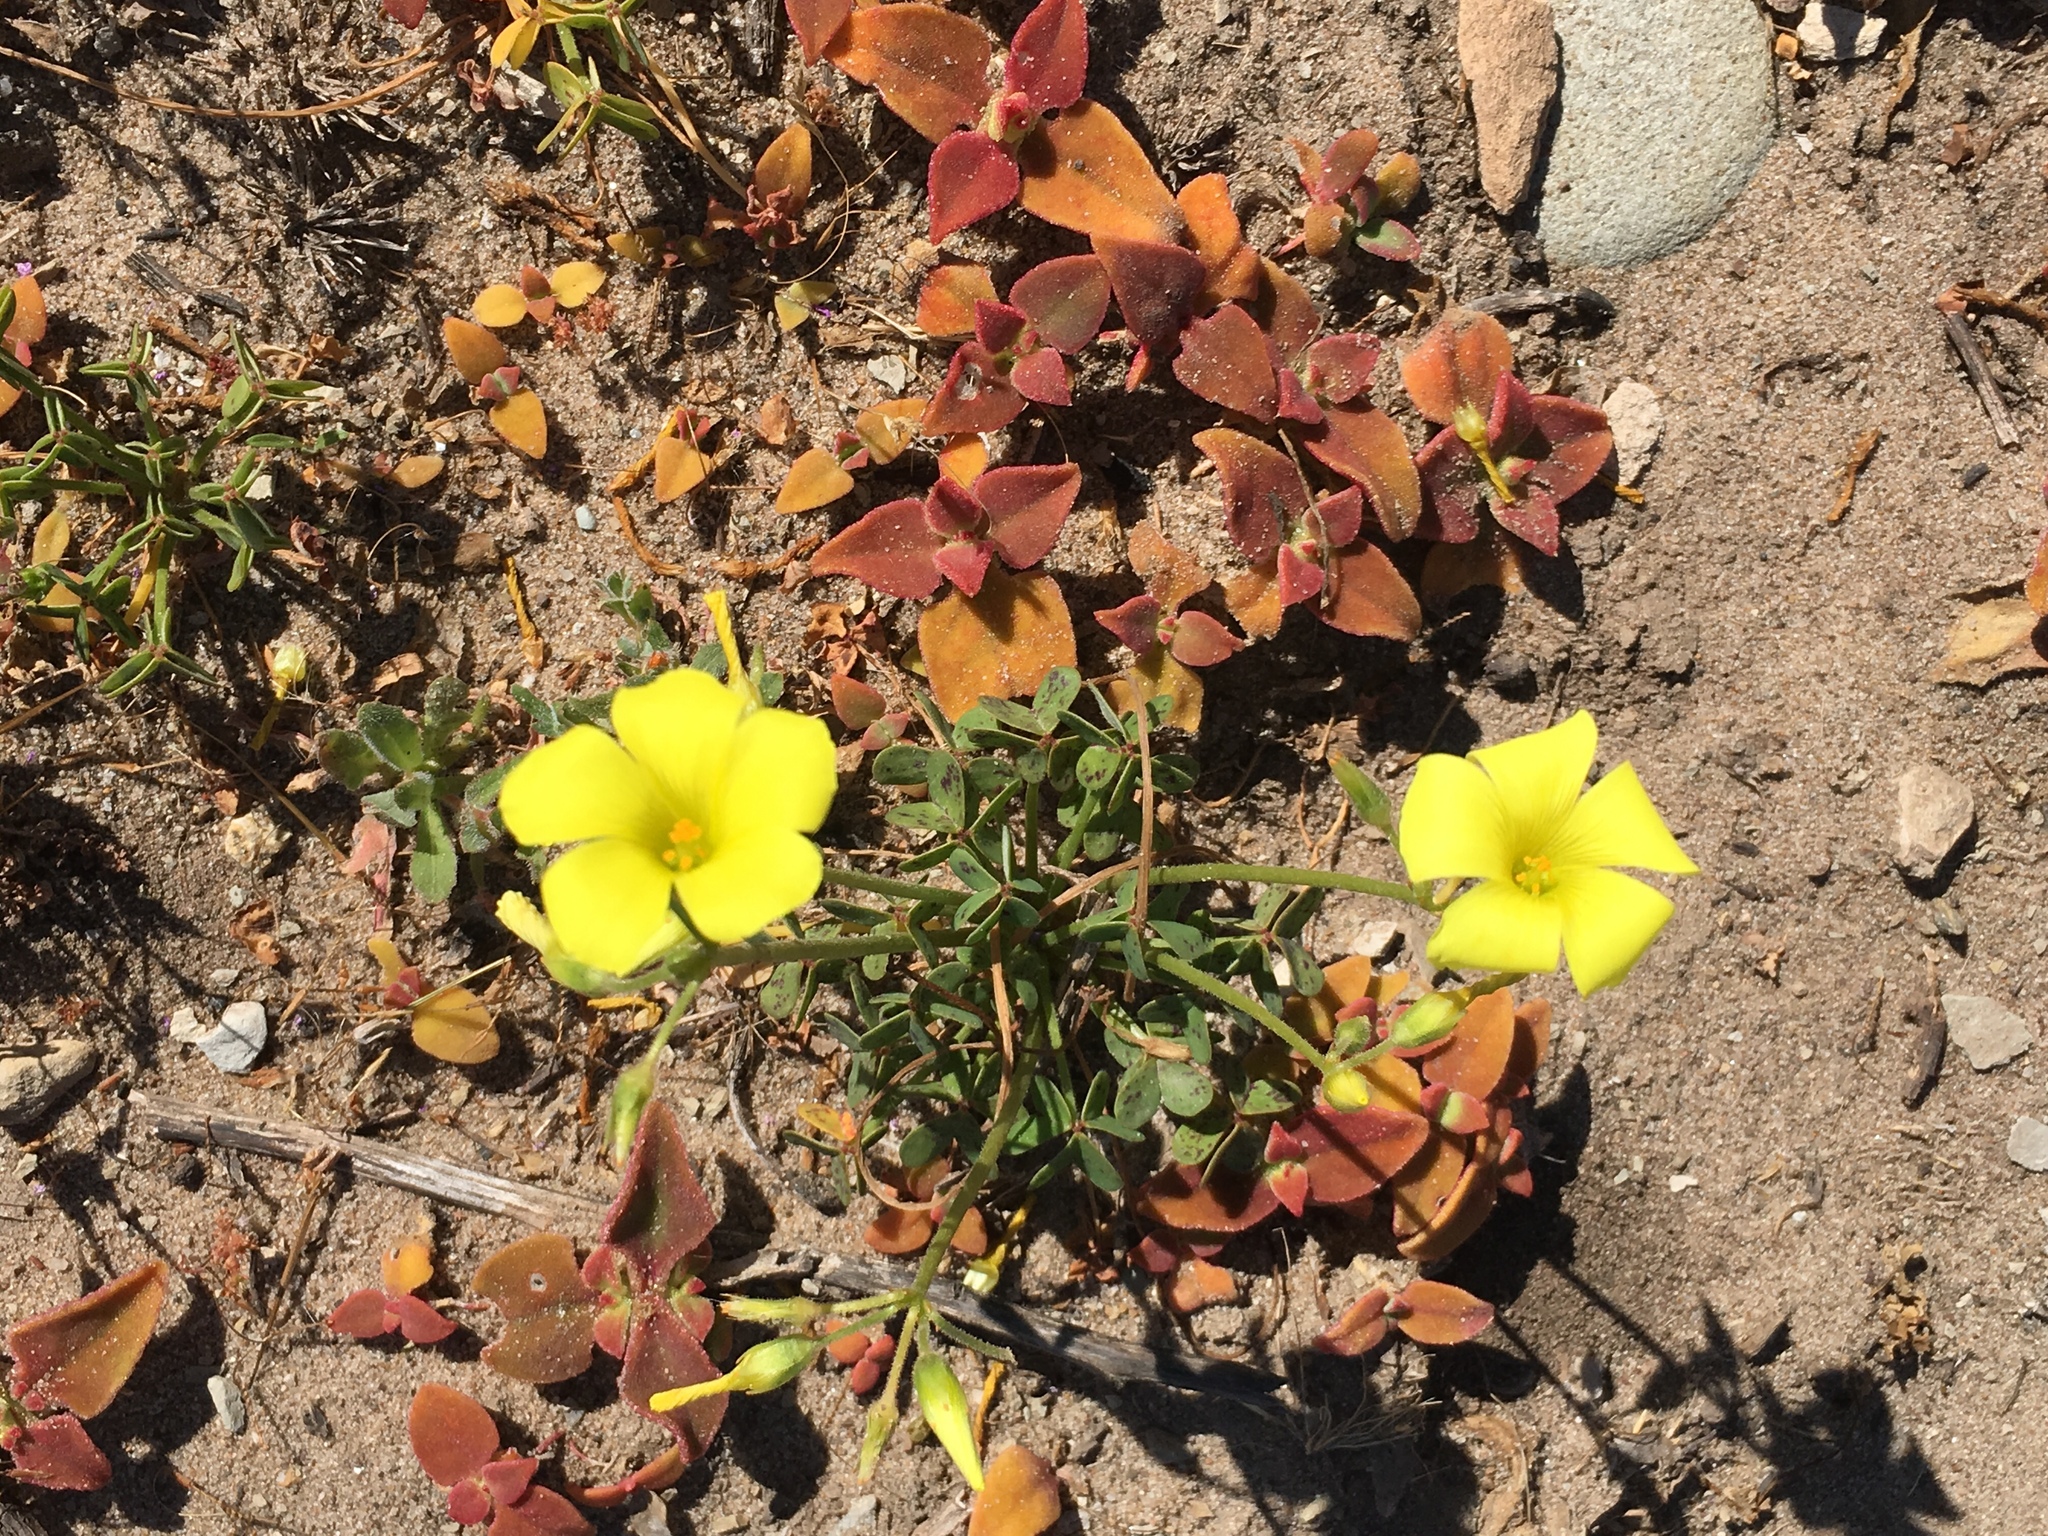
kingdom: Plantae
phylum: Tracheophyta
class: Magnoliopsida
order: Oxalidales
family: Oxalidaceae
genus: Oxalis
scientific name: Oxalis pes-caprae
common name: Bermuda-buttercup
